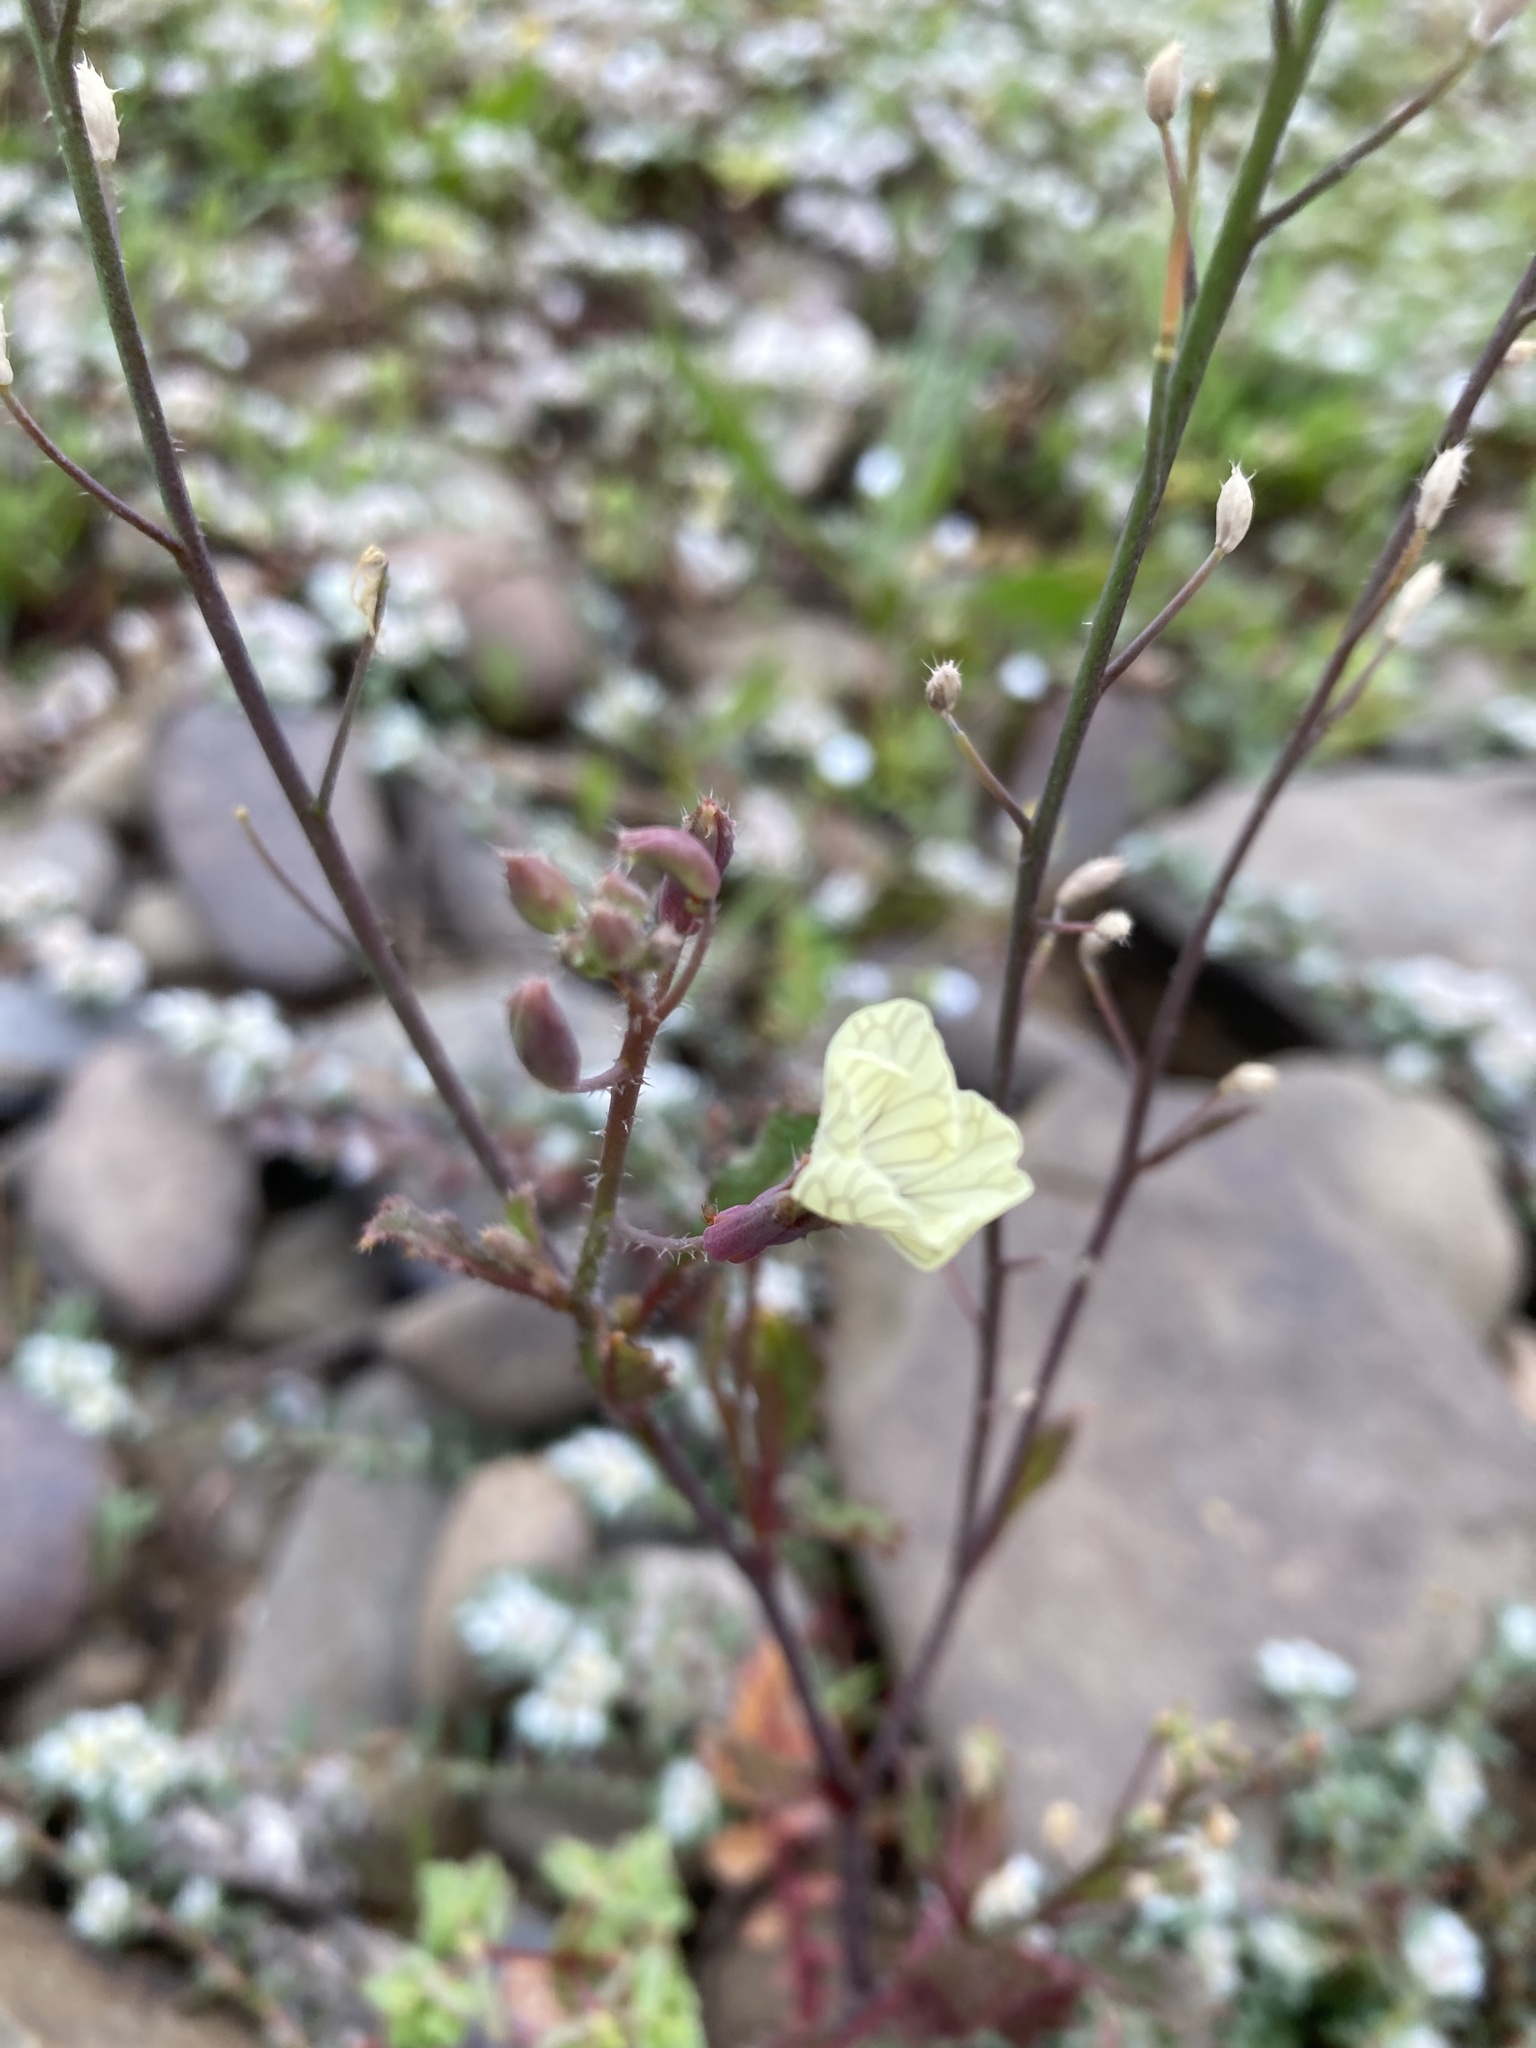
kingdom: Plantae
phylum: Tracheophyta
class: Magnoliopsida
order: Brassicales
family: Brassicaceae
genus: Raphanus
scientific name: Raphanus raphanistrum
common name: Wild radish
